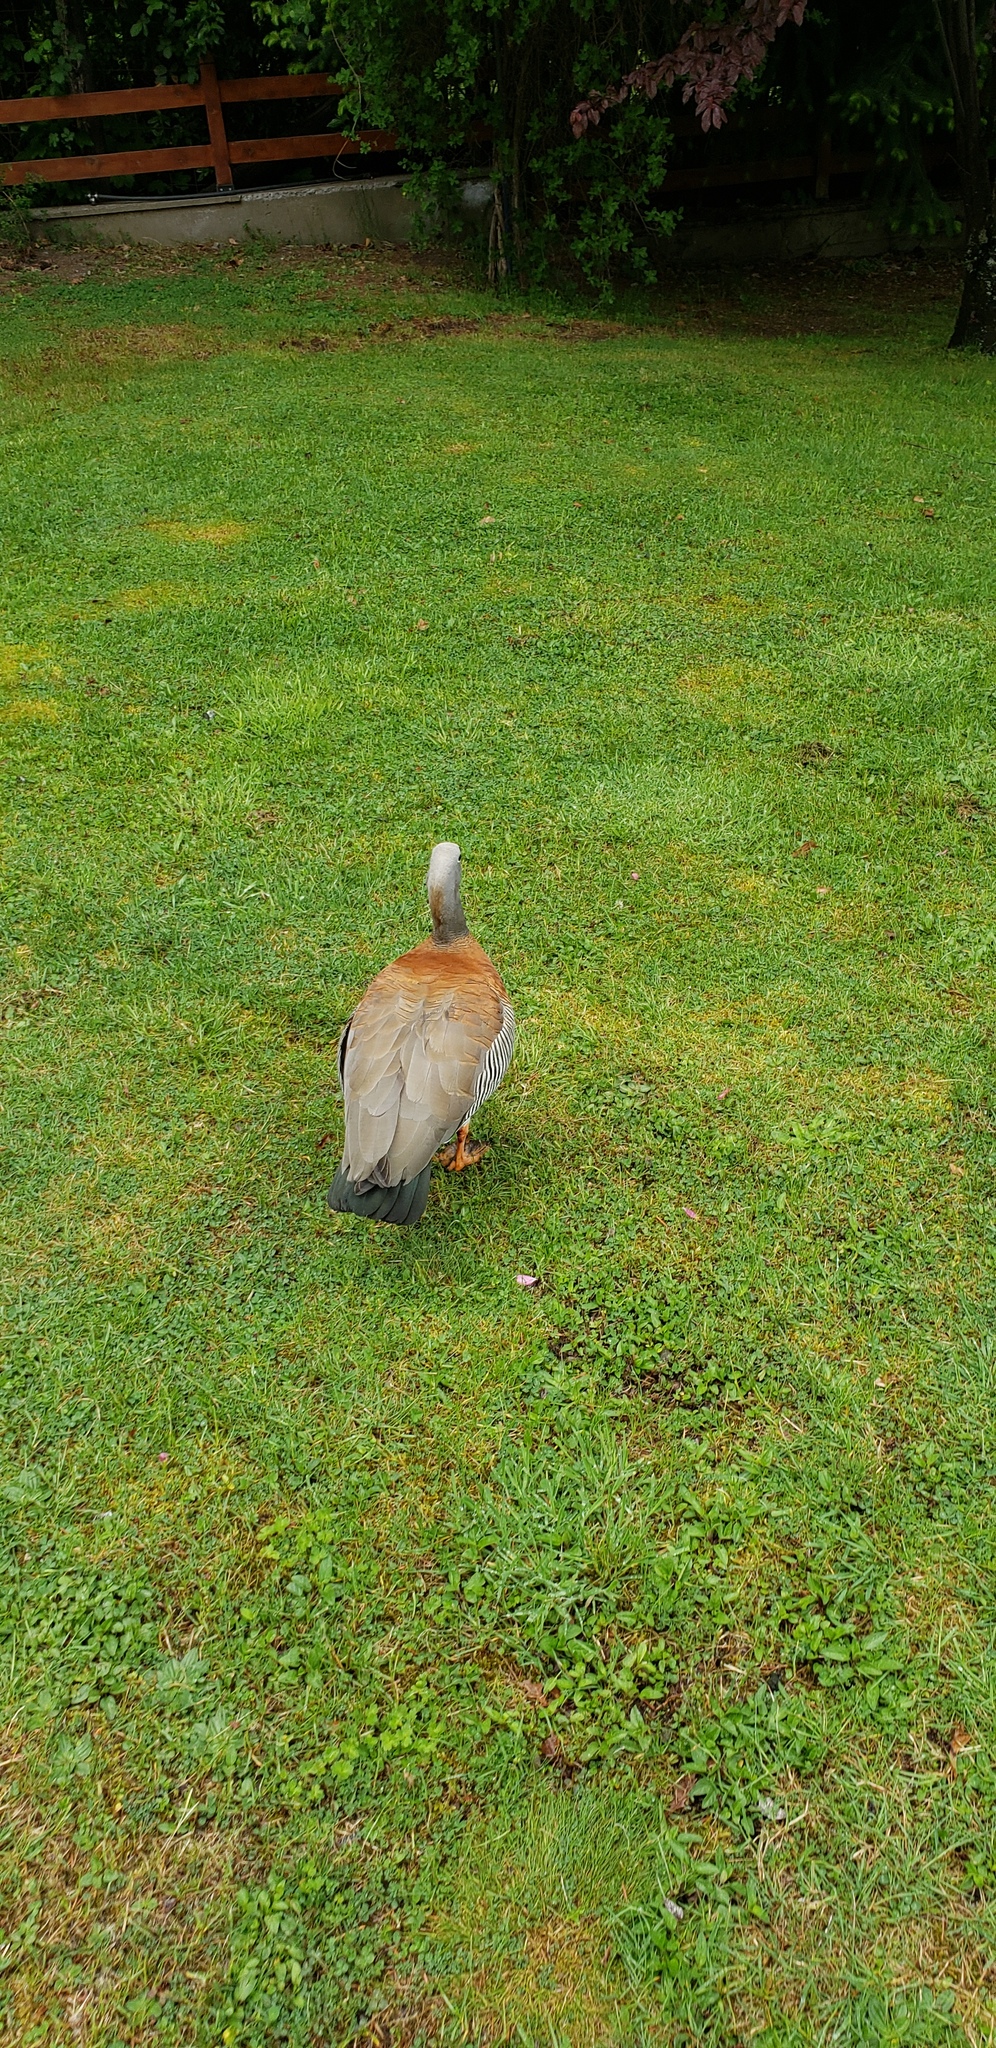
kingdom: Animalia
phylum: Chordata
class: Aves
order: Anseriformes
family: Anatidae
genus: Chloephaga
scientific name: Chloephaga poliocephala
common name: Ashy-headed goose
